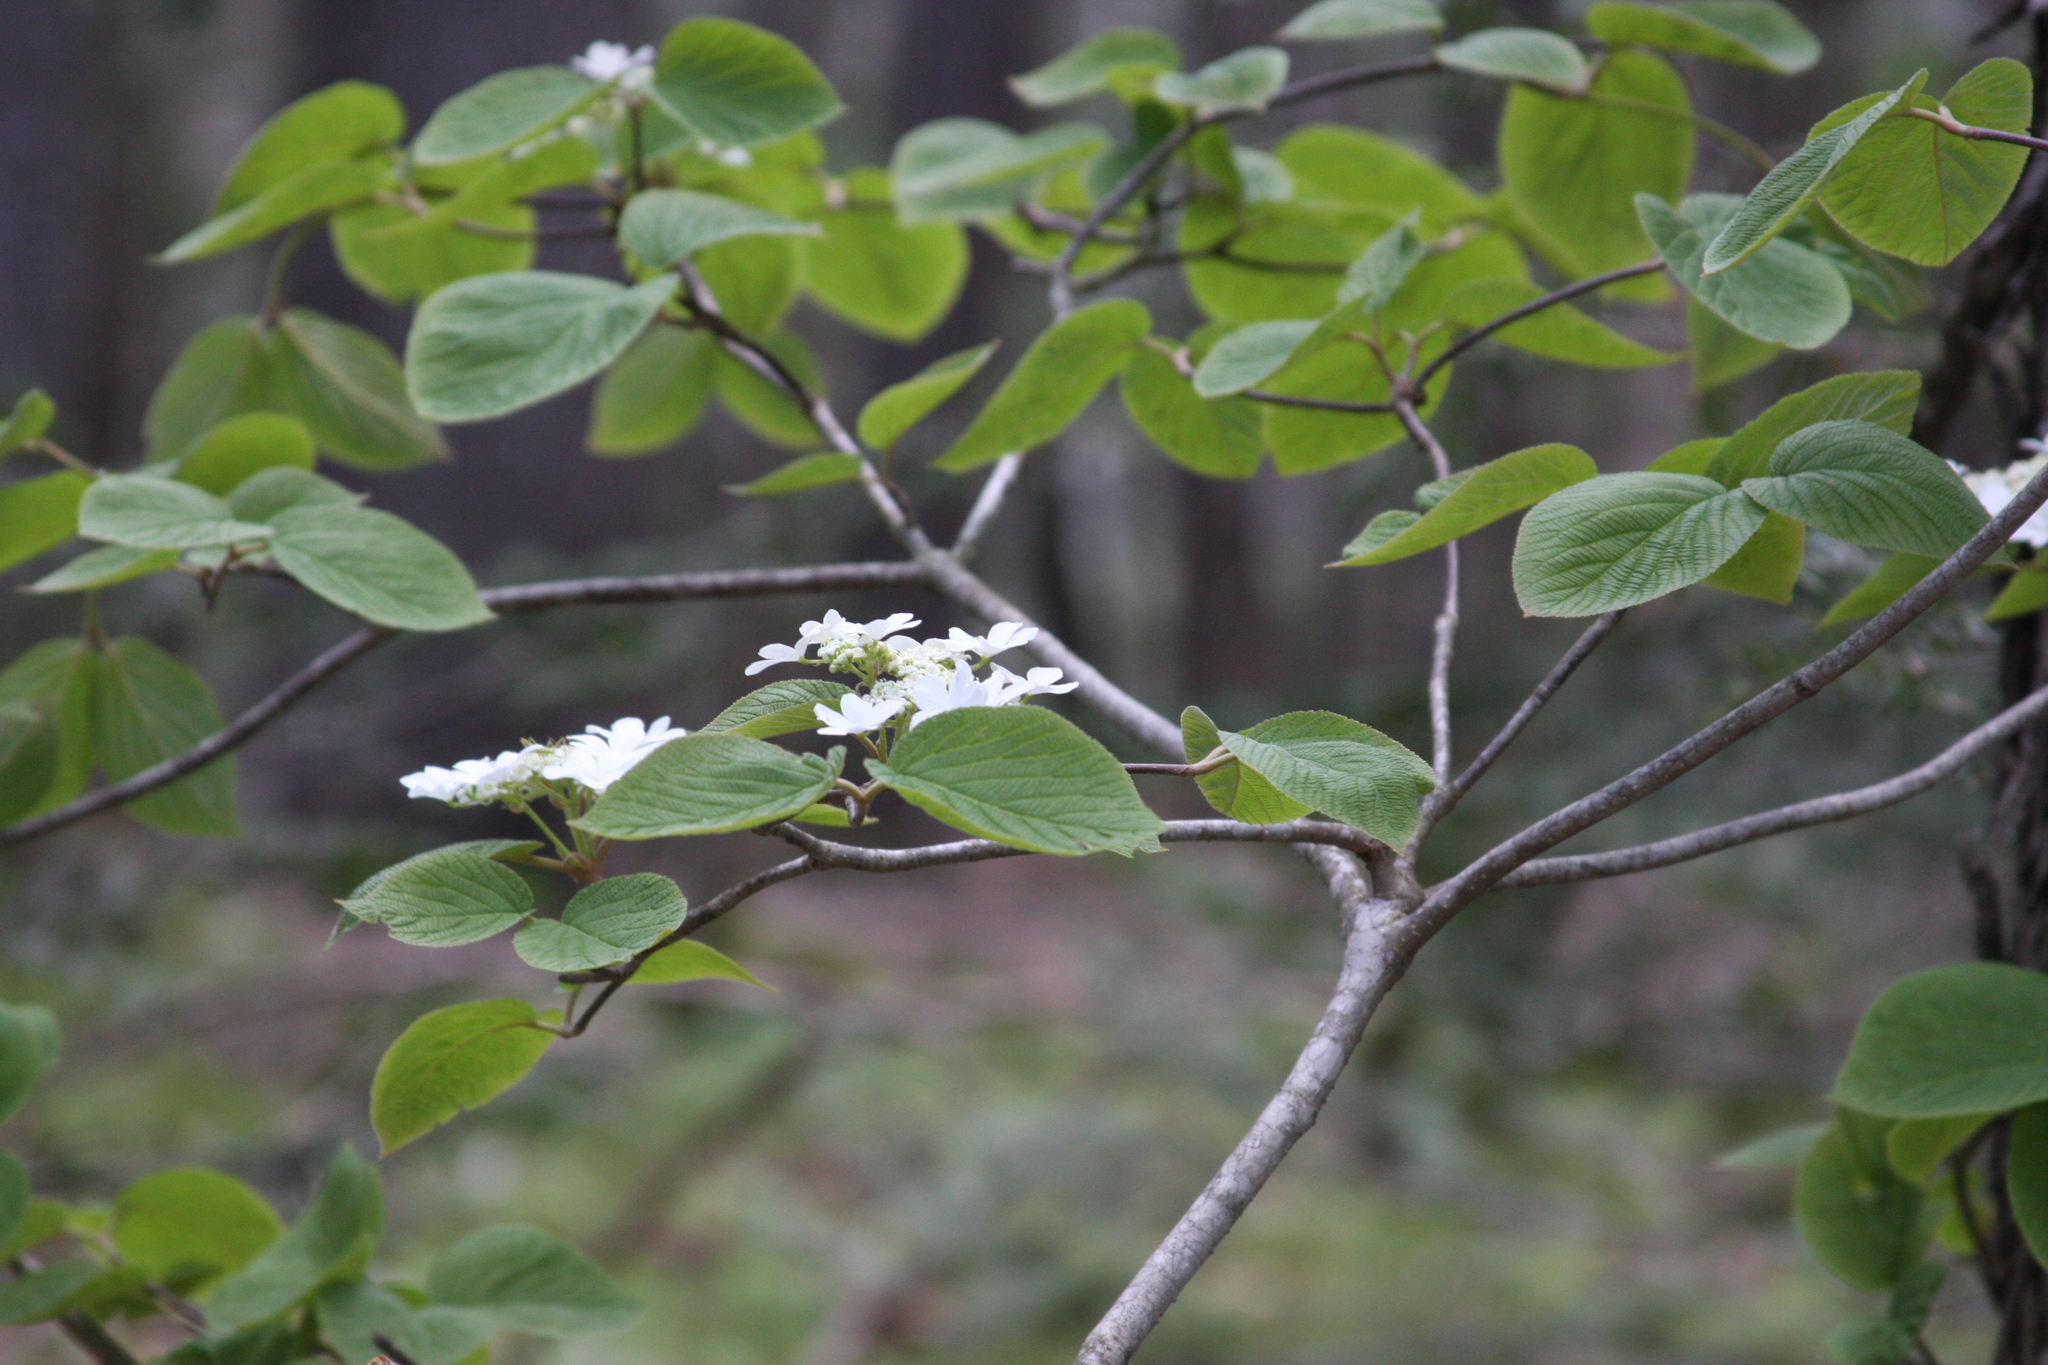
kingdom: Plantae
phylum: Tracheophyta
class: Magnoliopsida
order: Dipsacales
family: Viburnaceae
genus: Viburnum
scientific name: Viburnum lantanoides
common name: Hobblebush
